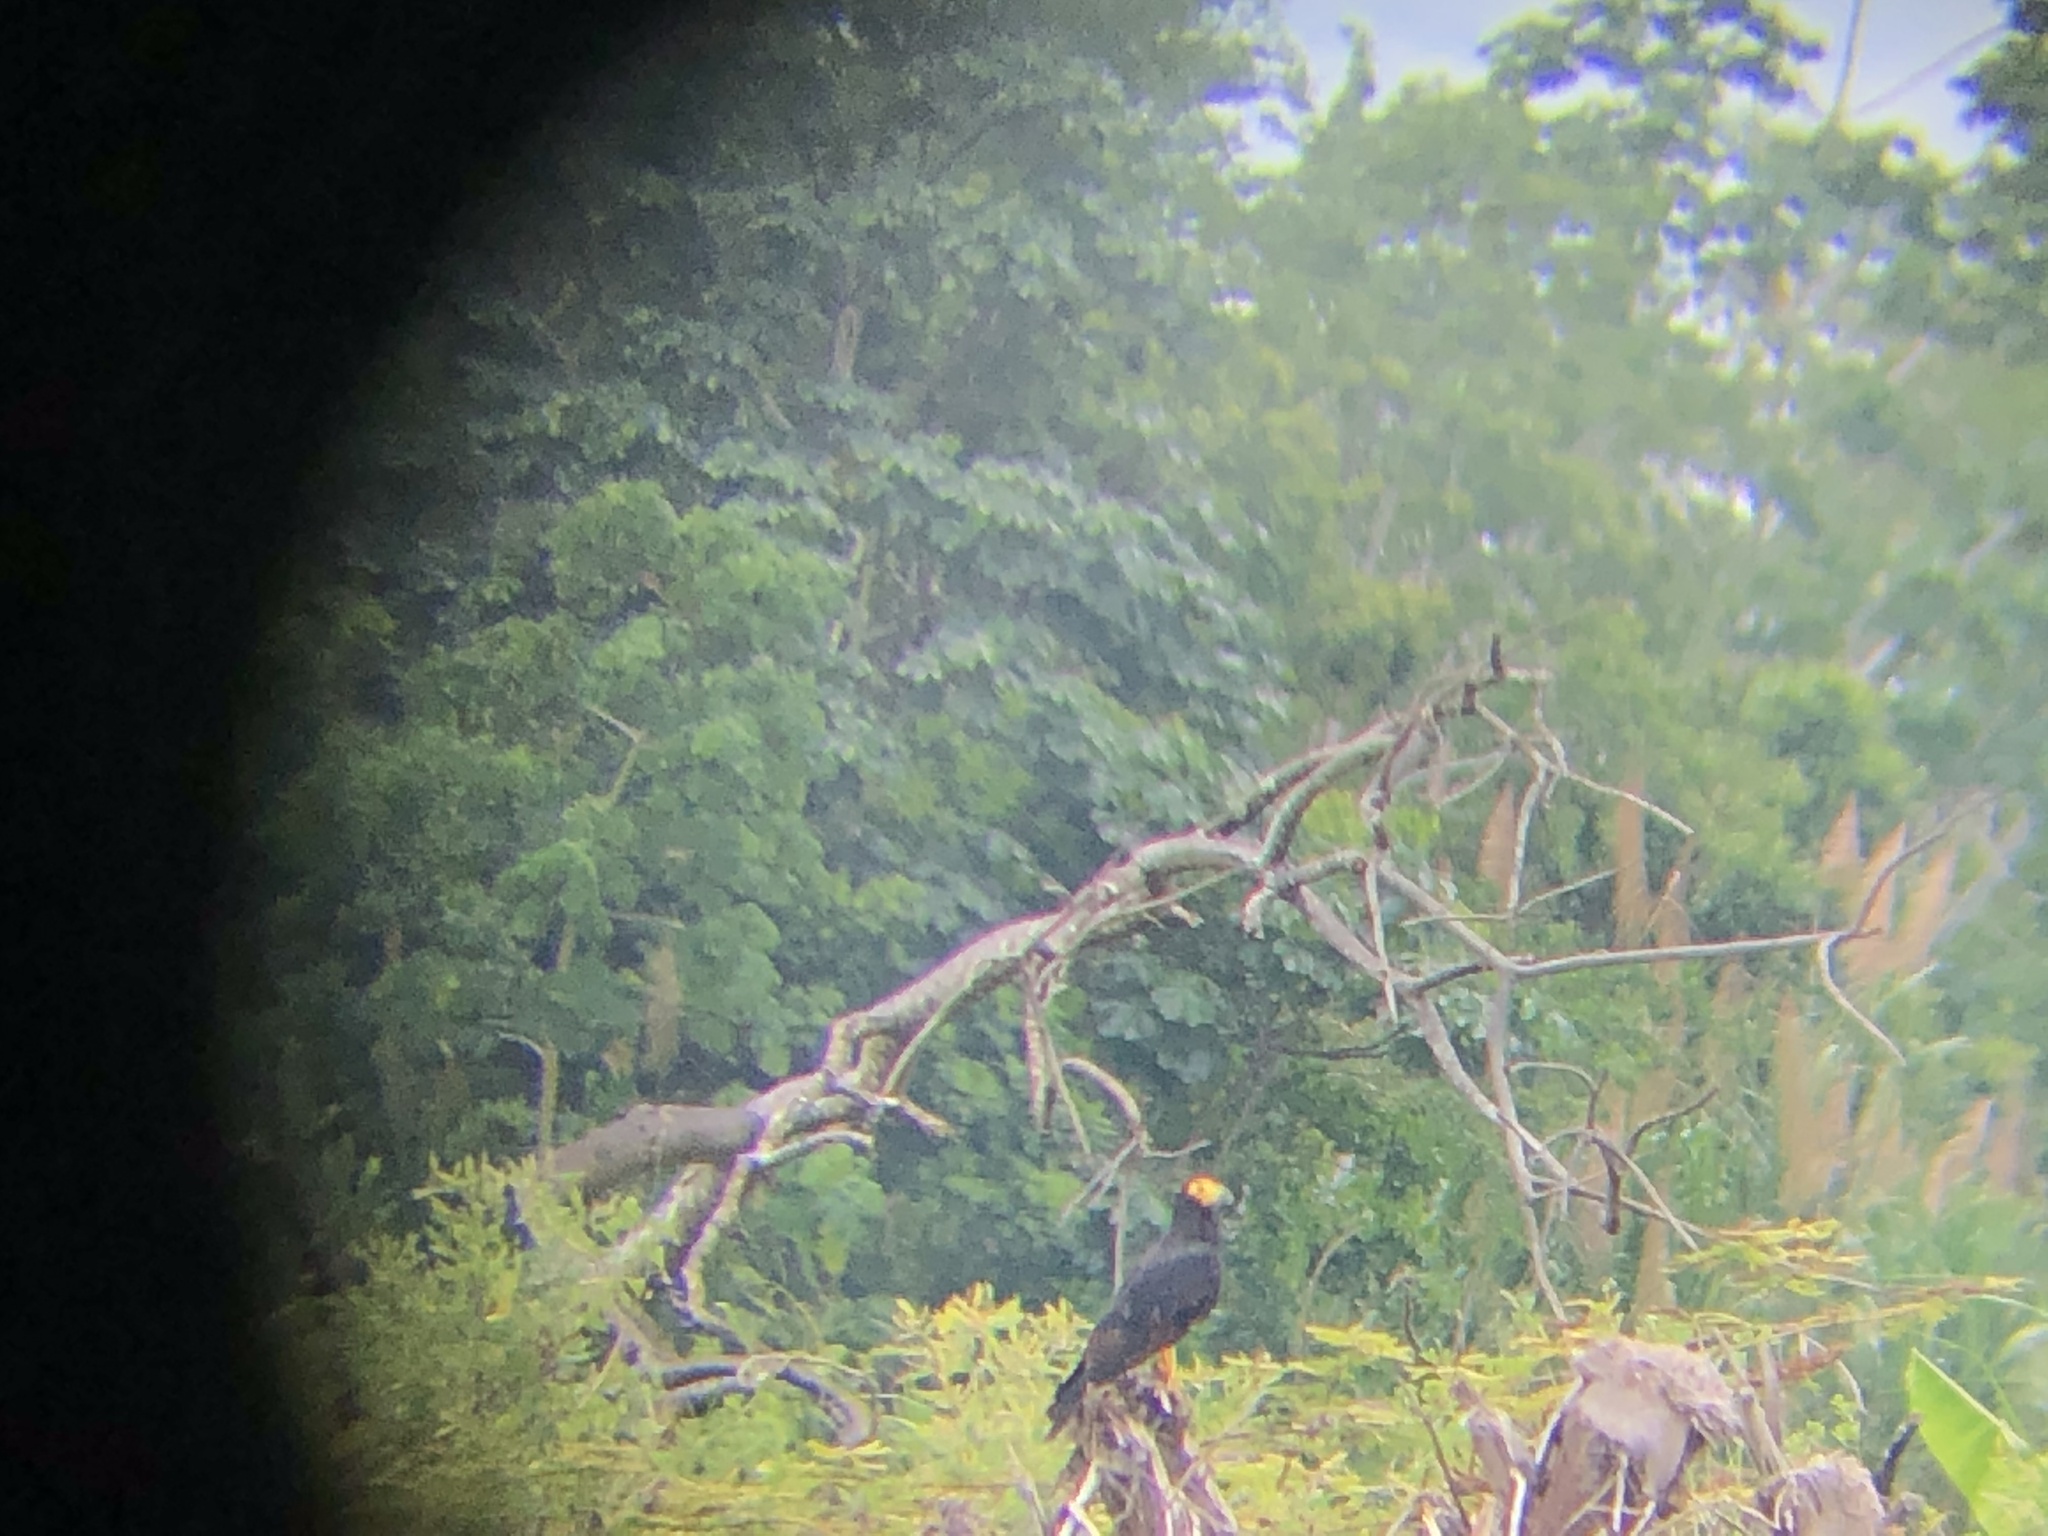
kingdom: Animalia
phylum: Chordata
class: Aves
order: Falconiformes
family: Falconidae
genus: Daptrius
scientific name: Daptrius ater
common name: Black caracara
